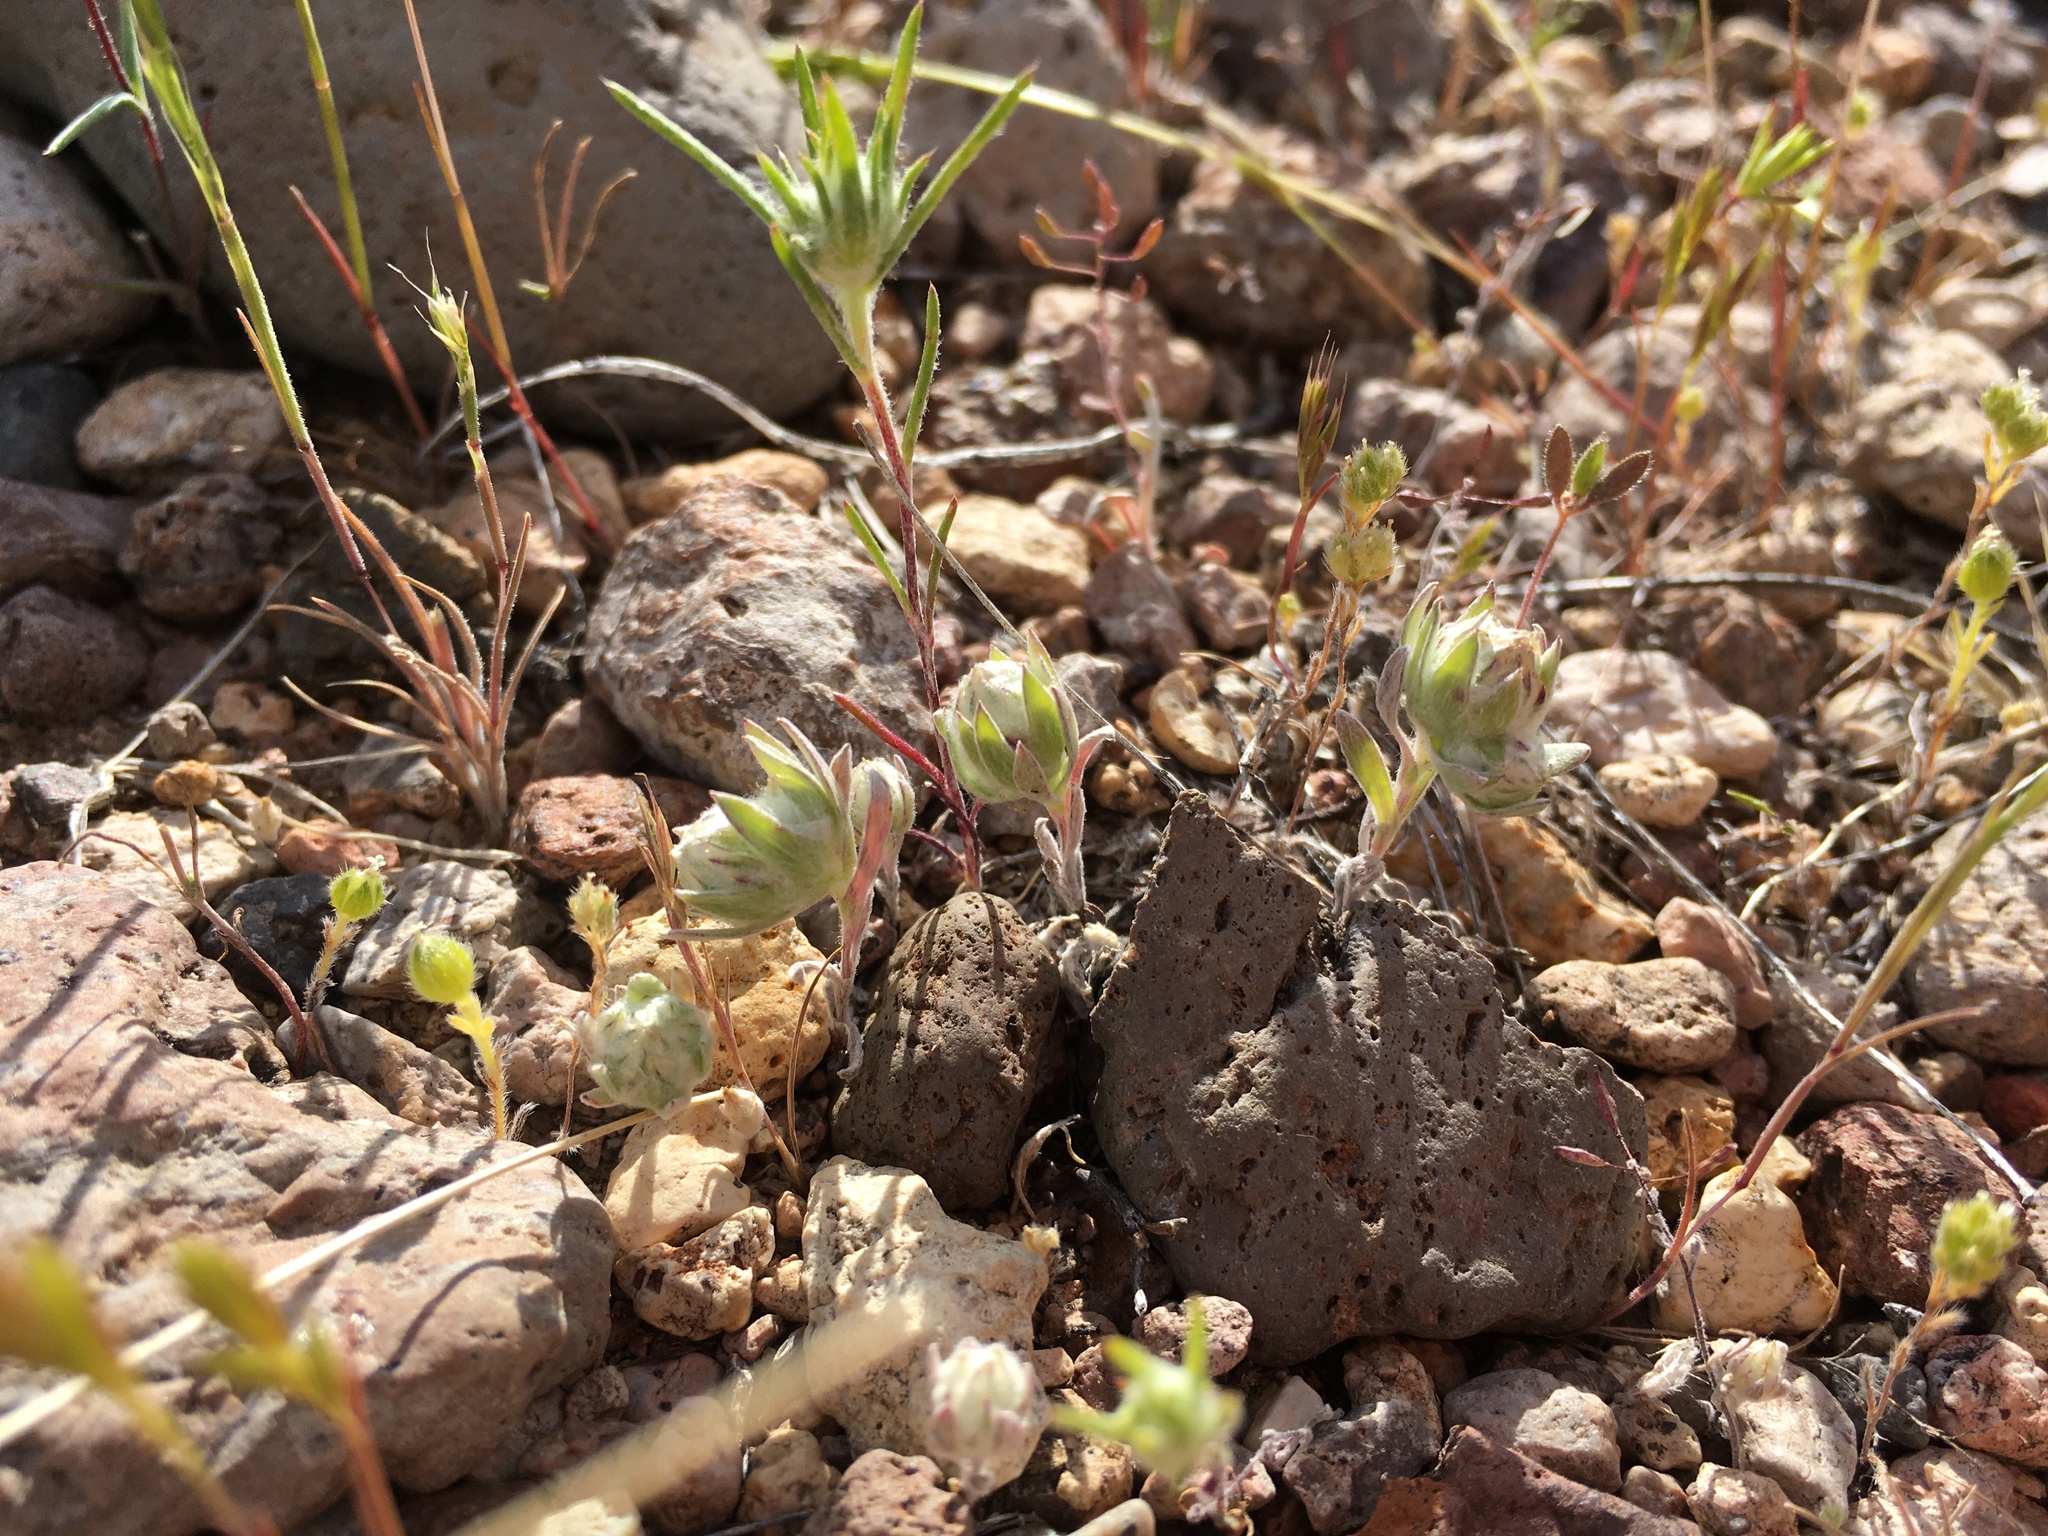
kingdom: Plantae
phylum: Tracheophyta
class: Magnoliopsida
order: Asterales
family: Asteraceae
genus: Stylocline
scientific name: Stylocline micropoides
